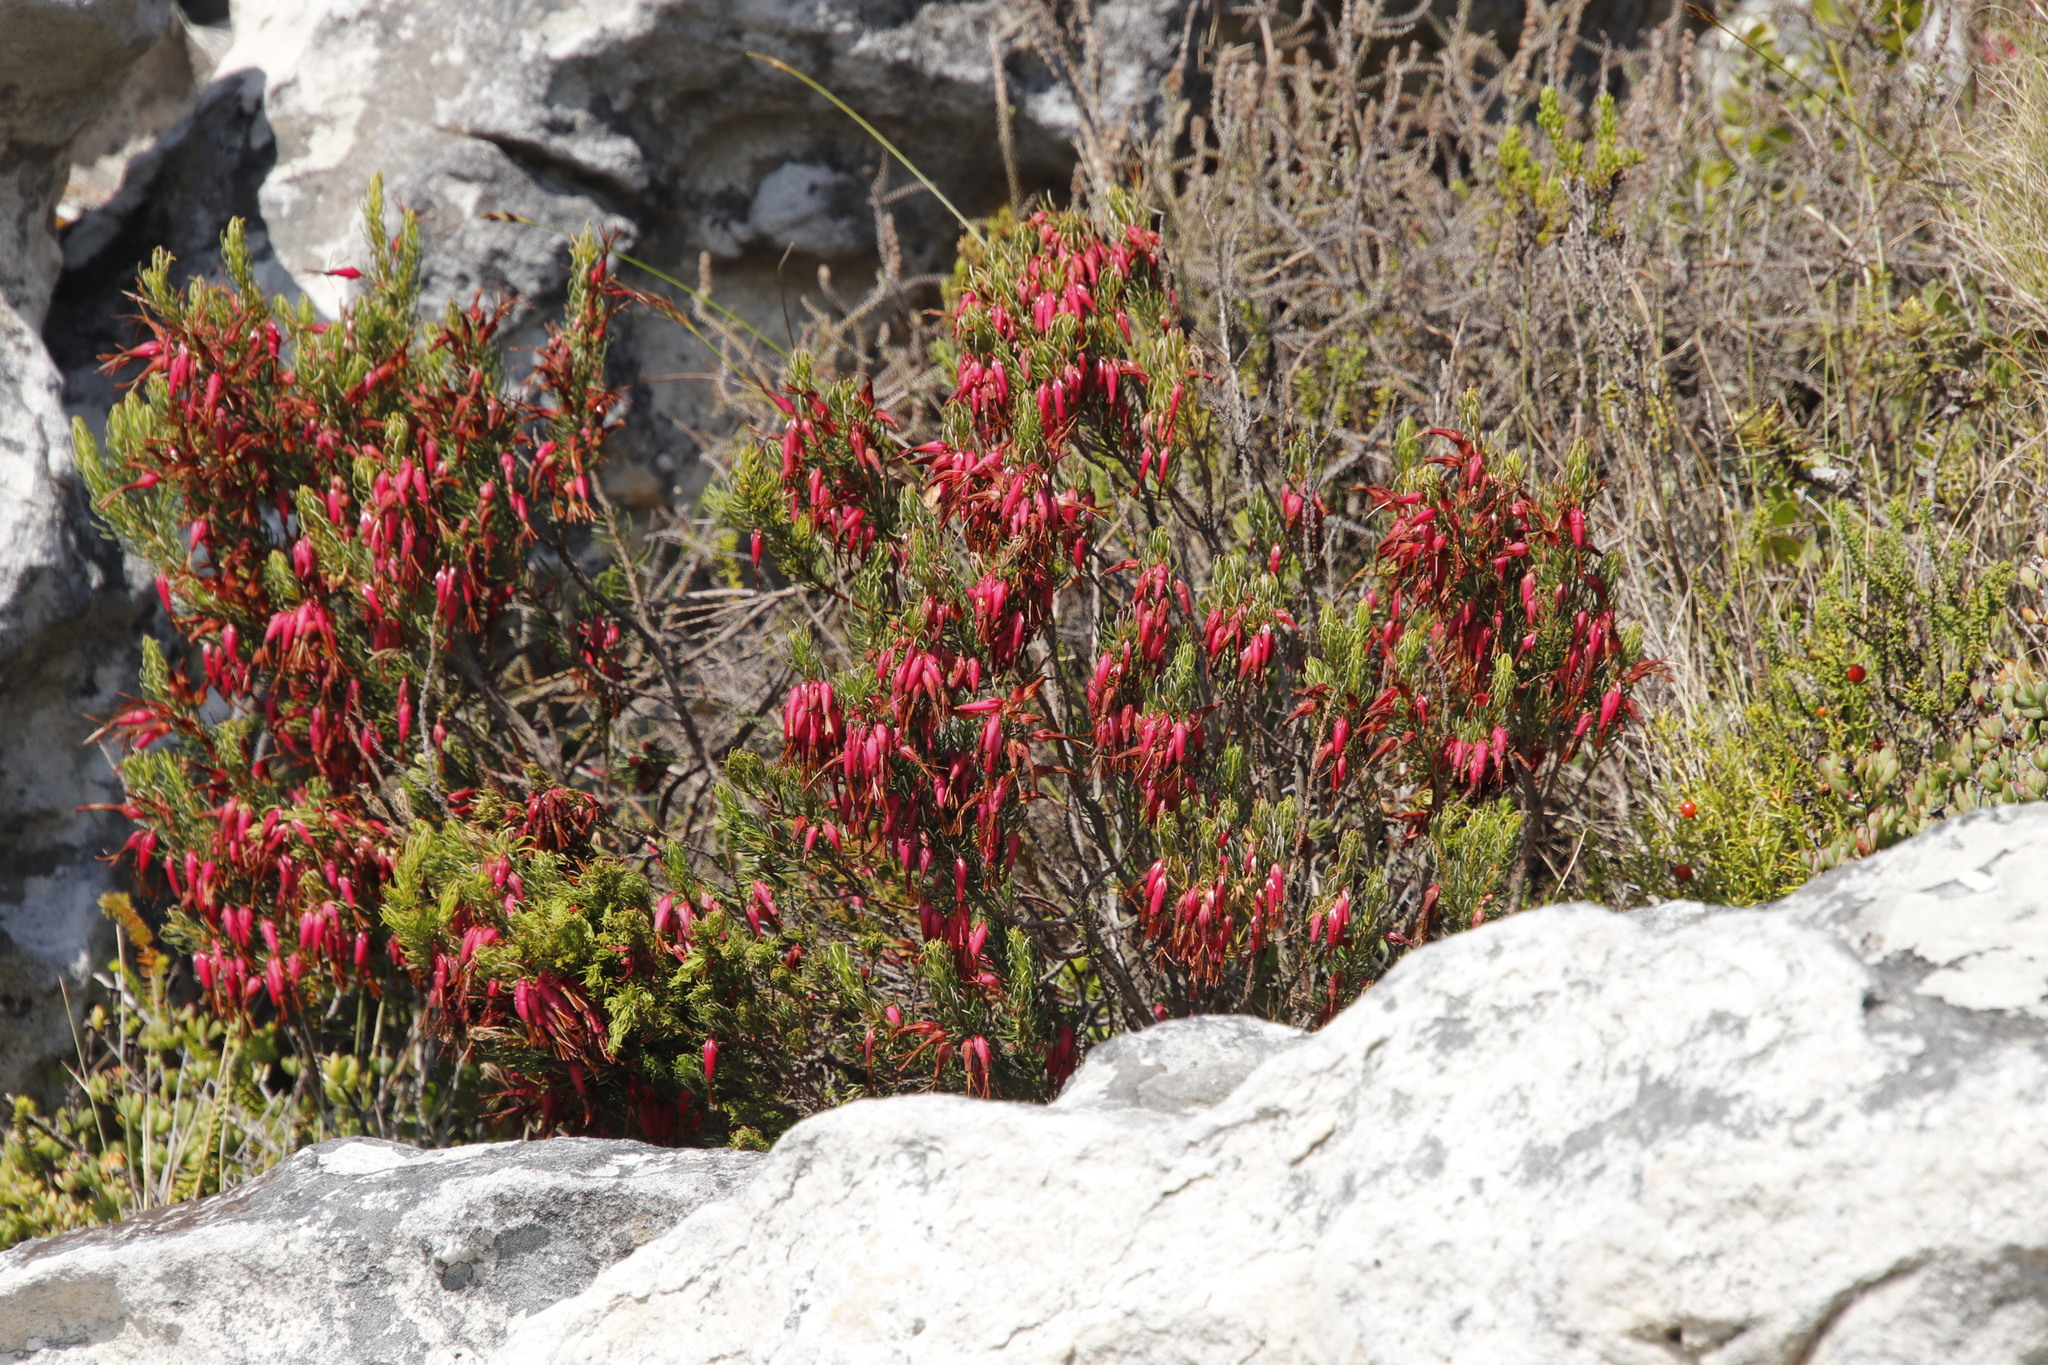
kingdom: Plantae
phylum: Tracheophyta
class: Magnoliopsida
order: Ericales
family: Ericaceae
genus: Erica
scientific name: Erica plukenetii
